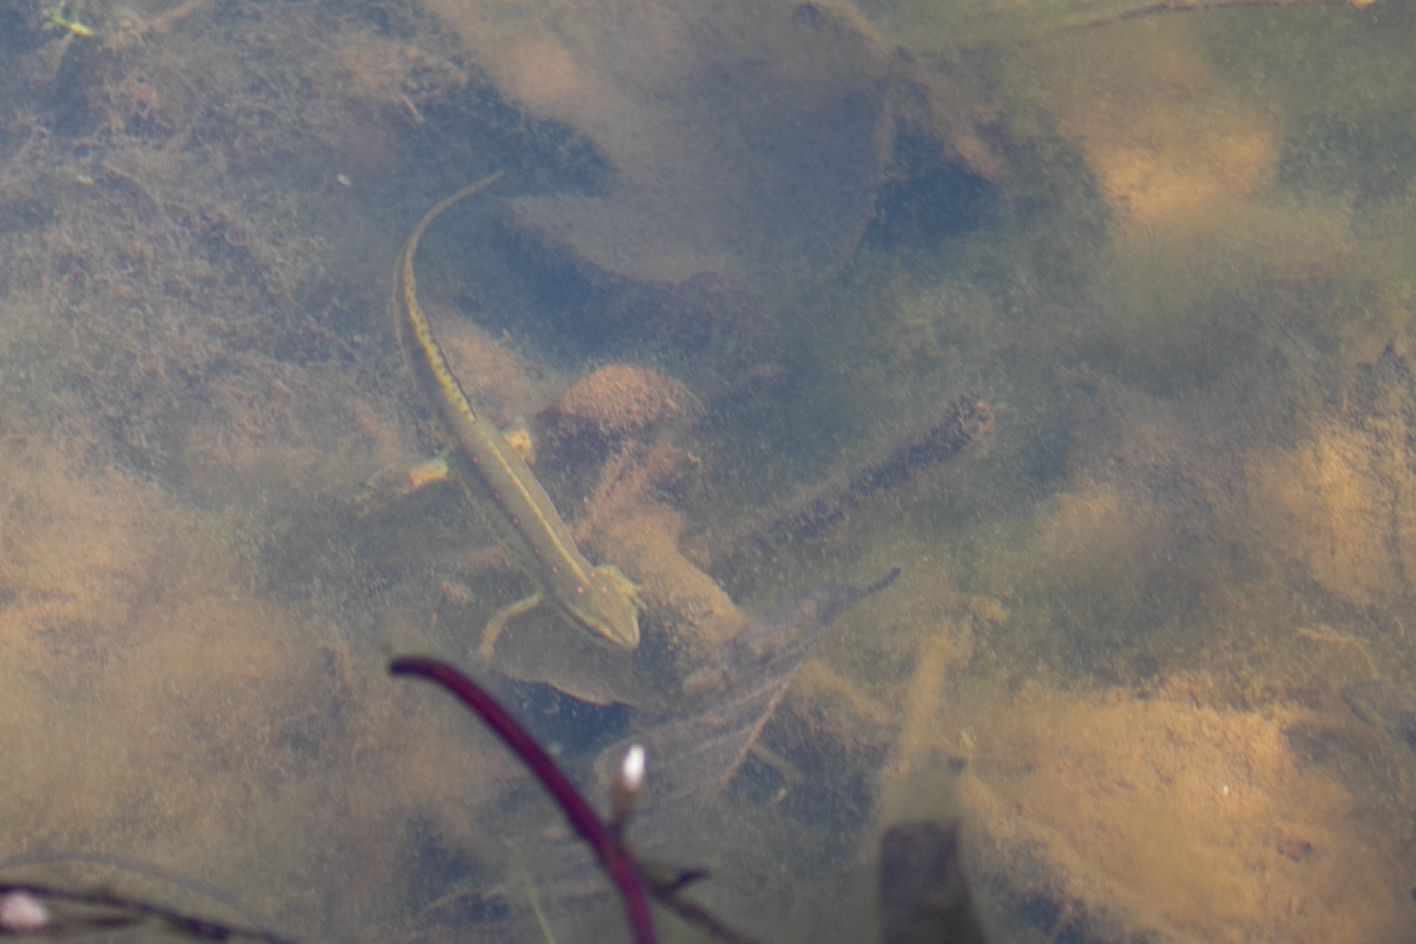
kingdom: Animalia
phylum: Chordata
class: Amphibia
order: Caudata
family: Salamandridae
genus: Notophthalmus
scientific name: Notophthalmus viridescens
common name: Eastern newt
